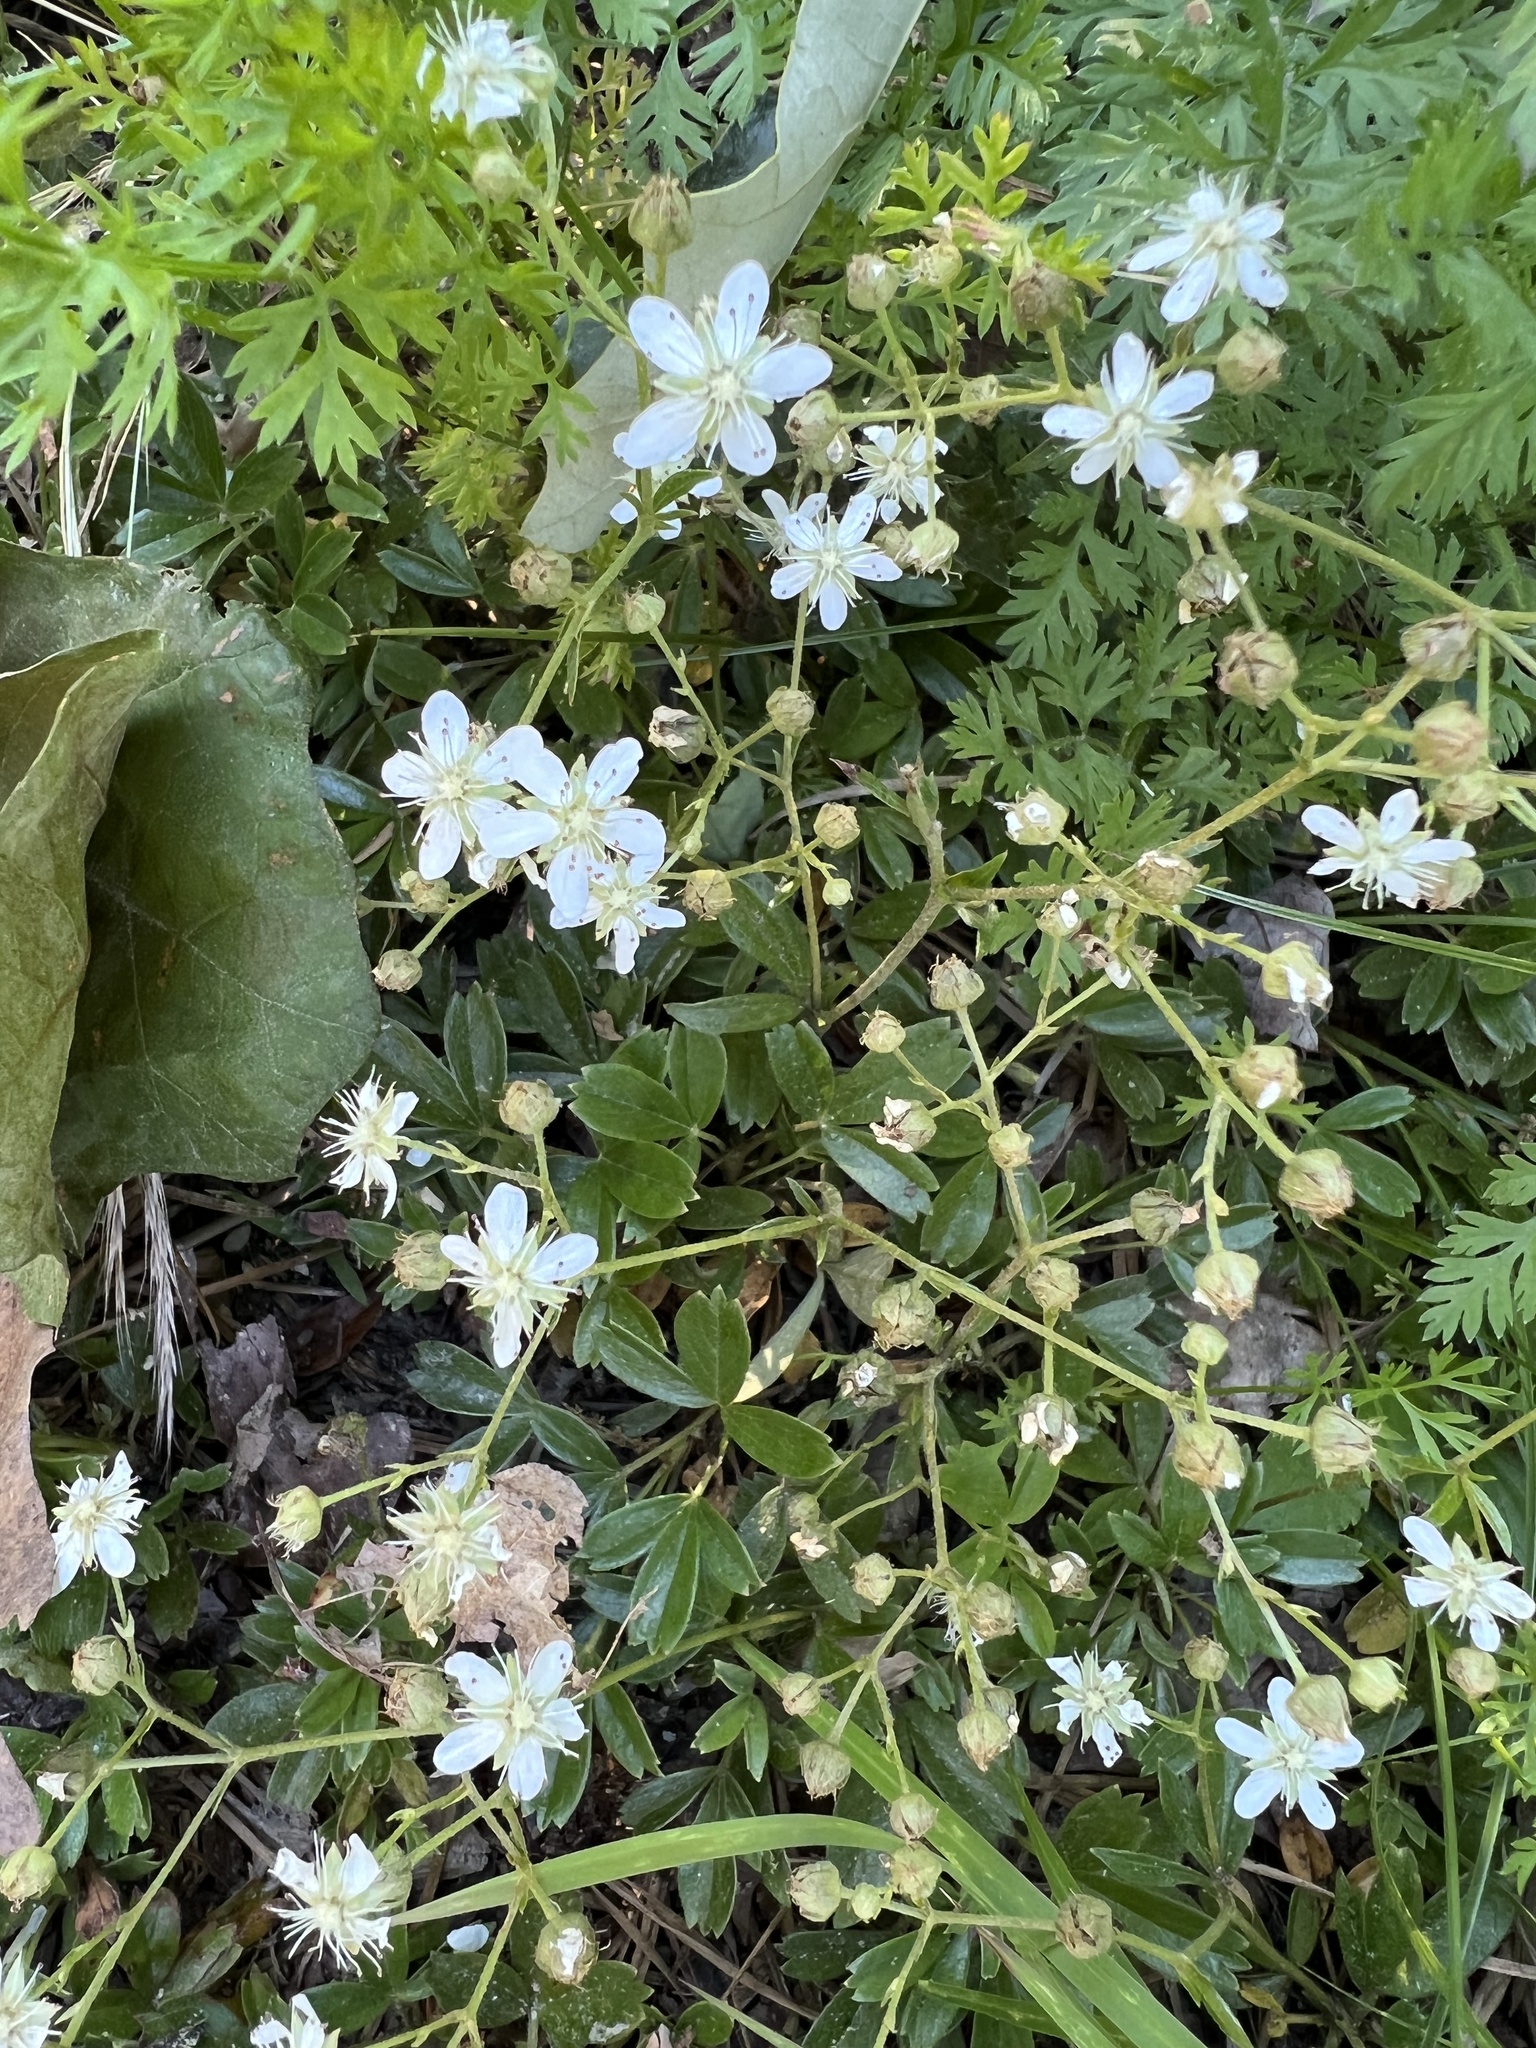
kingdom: Plantae
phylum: Tracheophyta
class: Magnoliopsida
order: Rosales
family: Rosaceae
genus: Sibbaldia
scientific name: Sibbaldia tridentata
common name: Three-toothed cinquefoil
